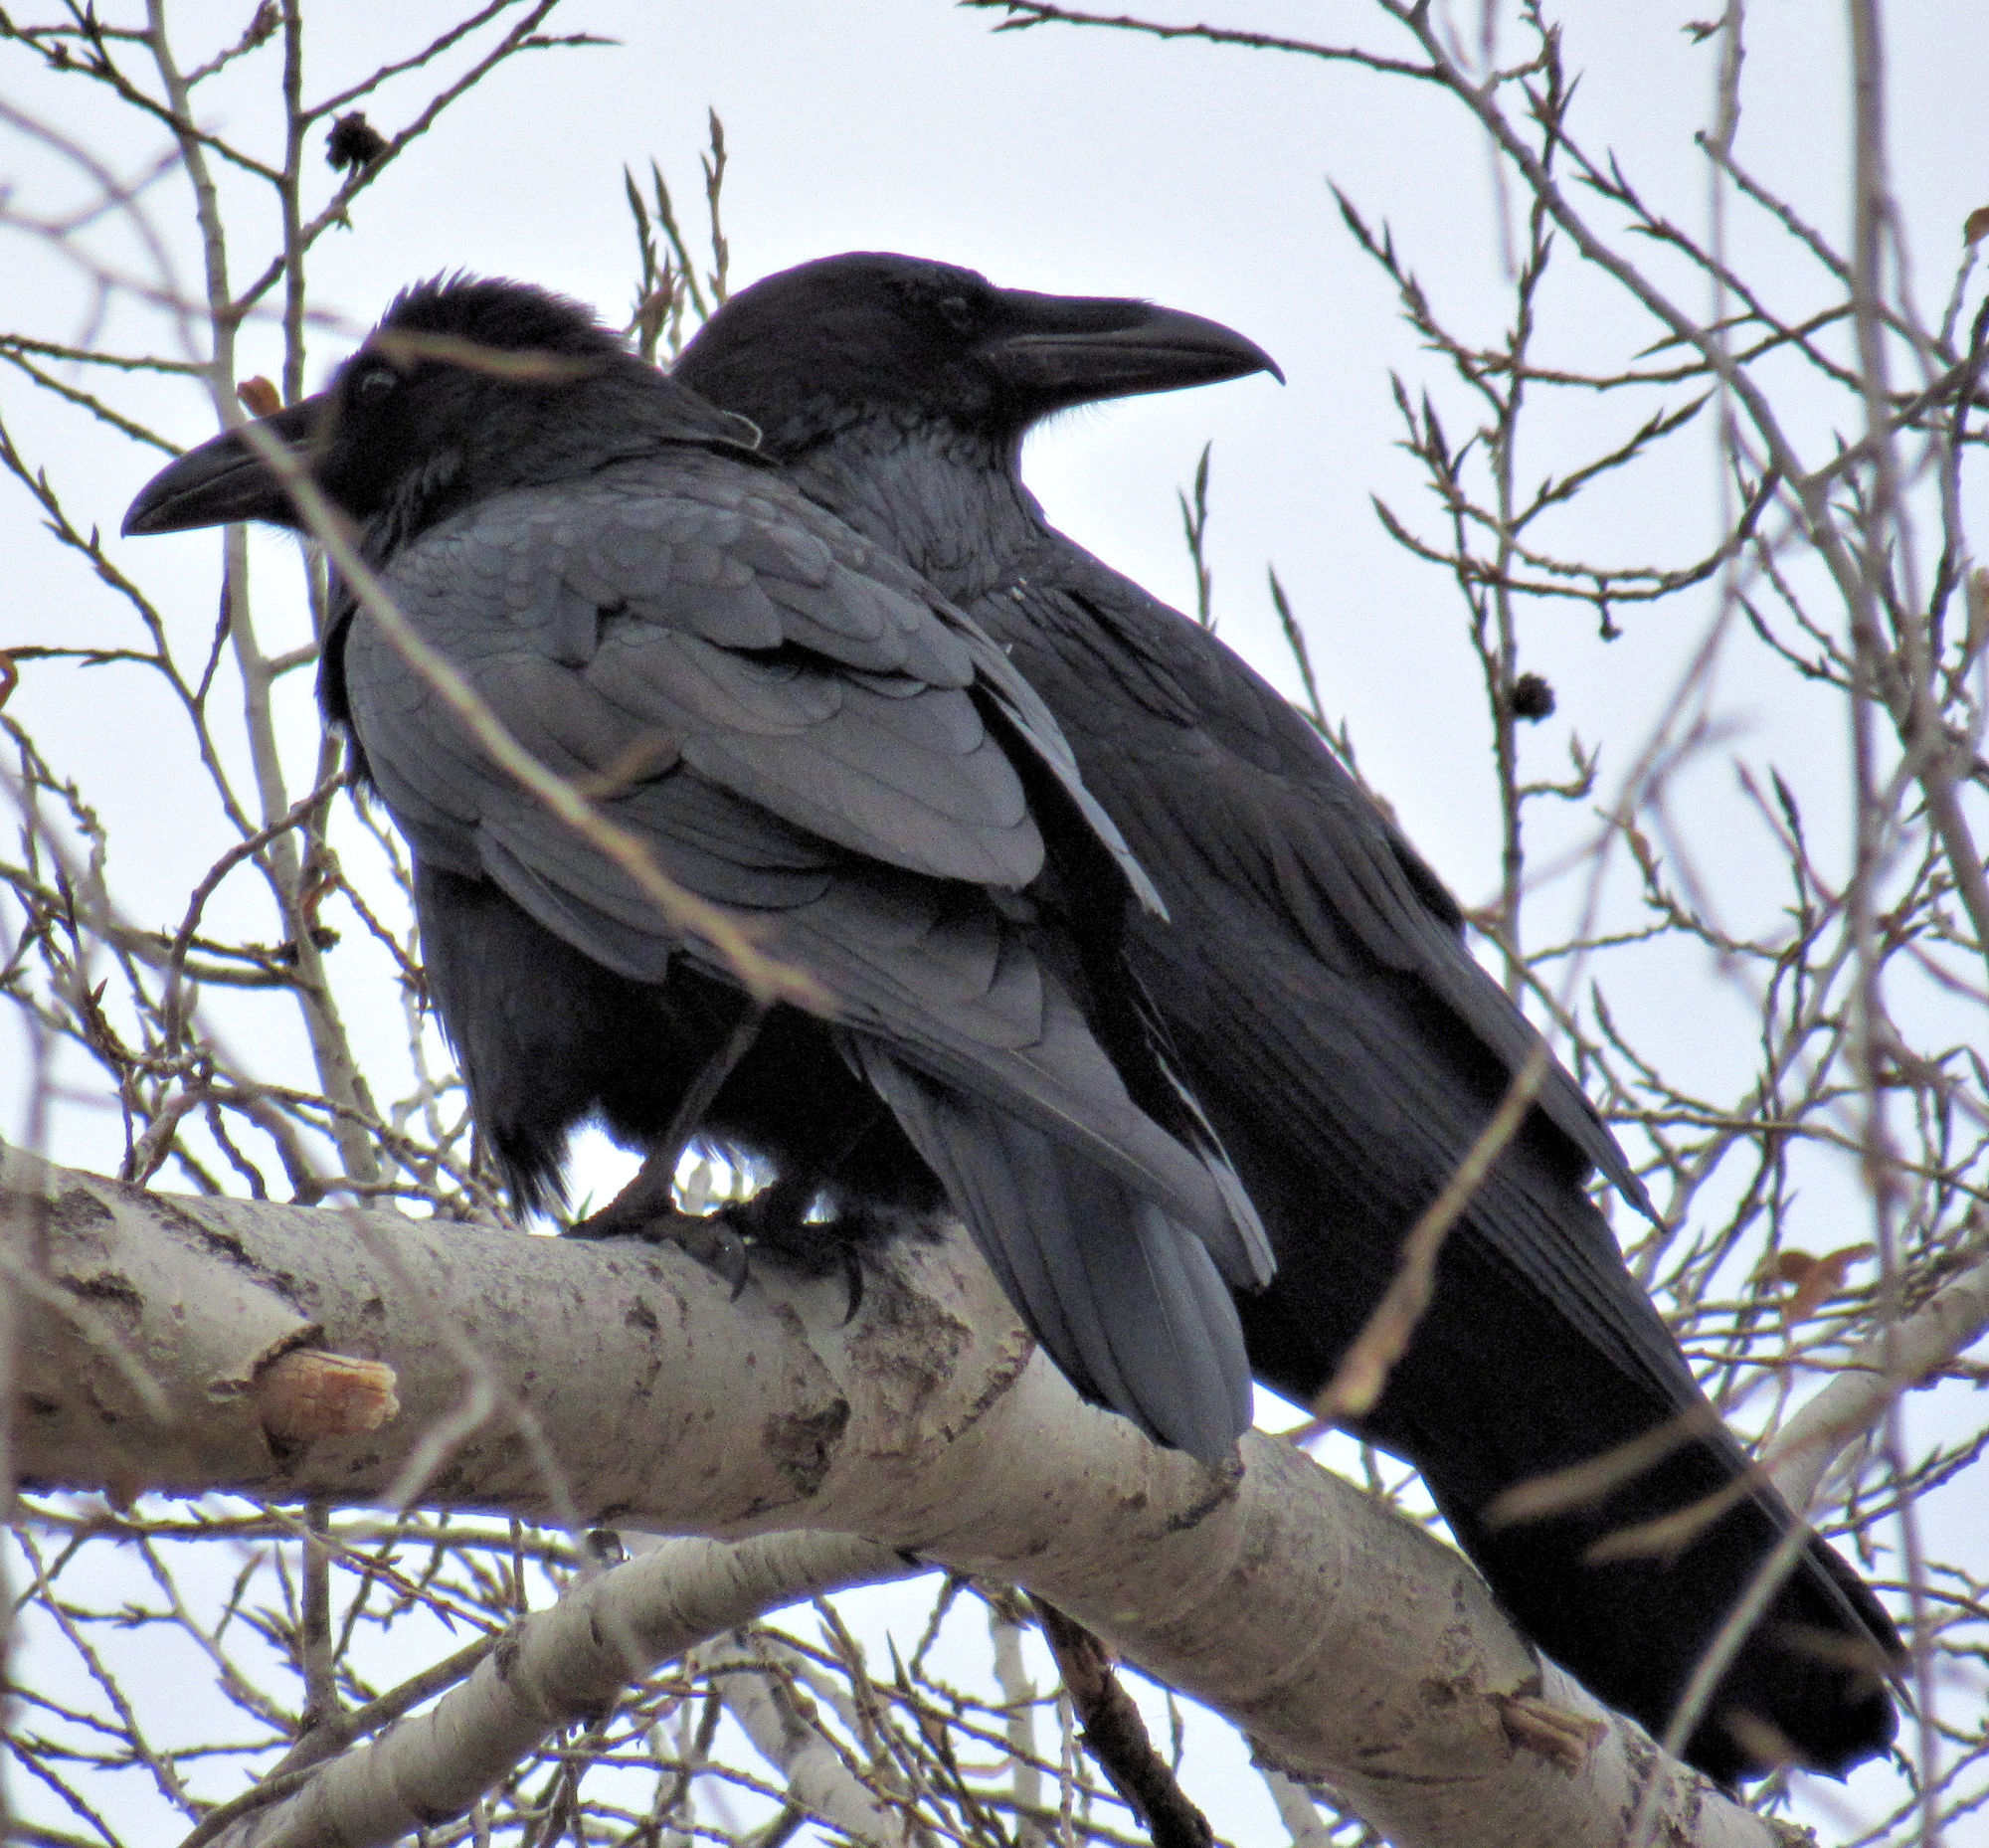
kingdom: Animalia
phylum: Chordata
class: Aves
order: Passeriformes
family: Corvidae
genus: Corvus
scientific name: Corvus corax
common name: Common raven
